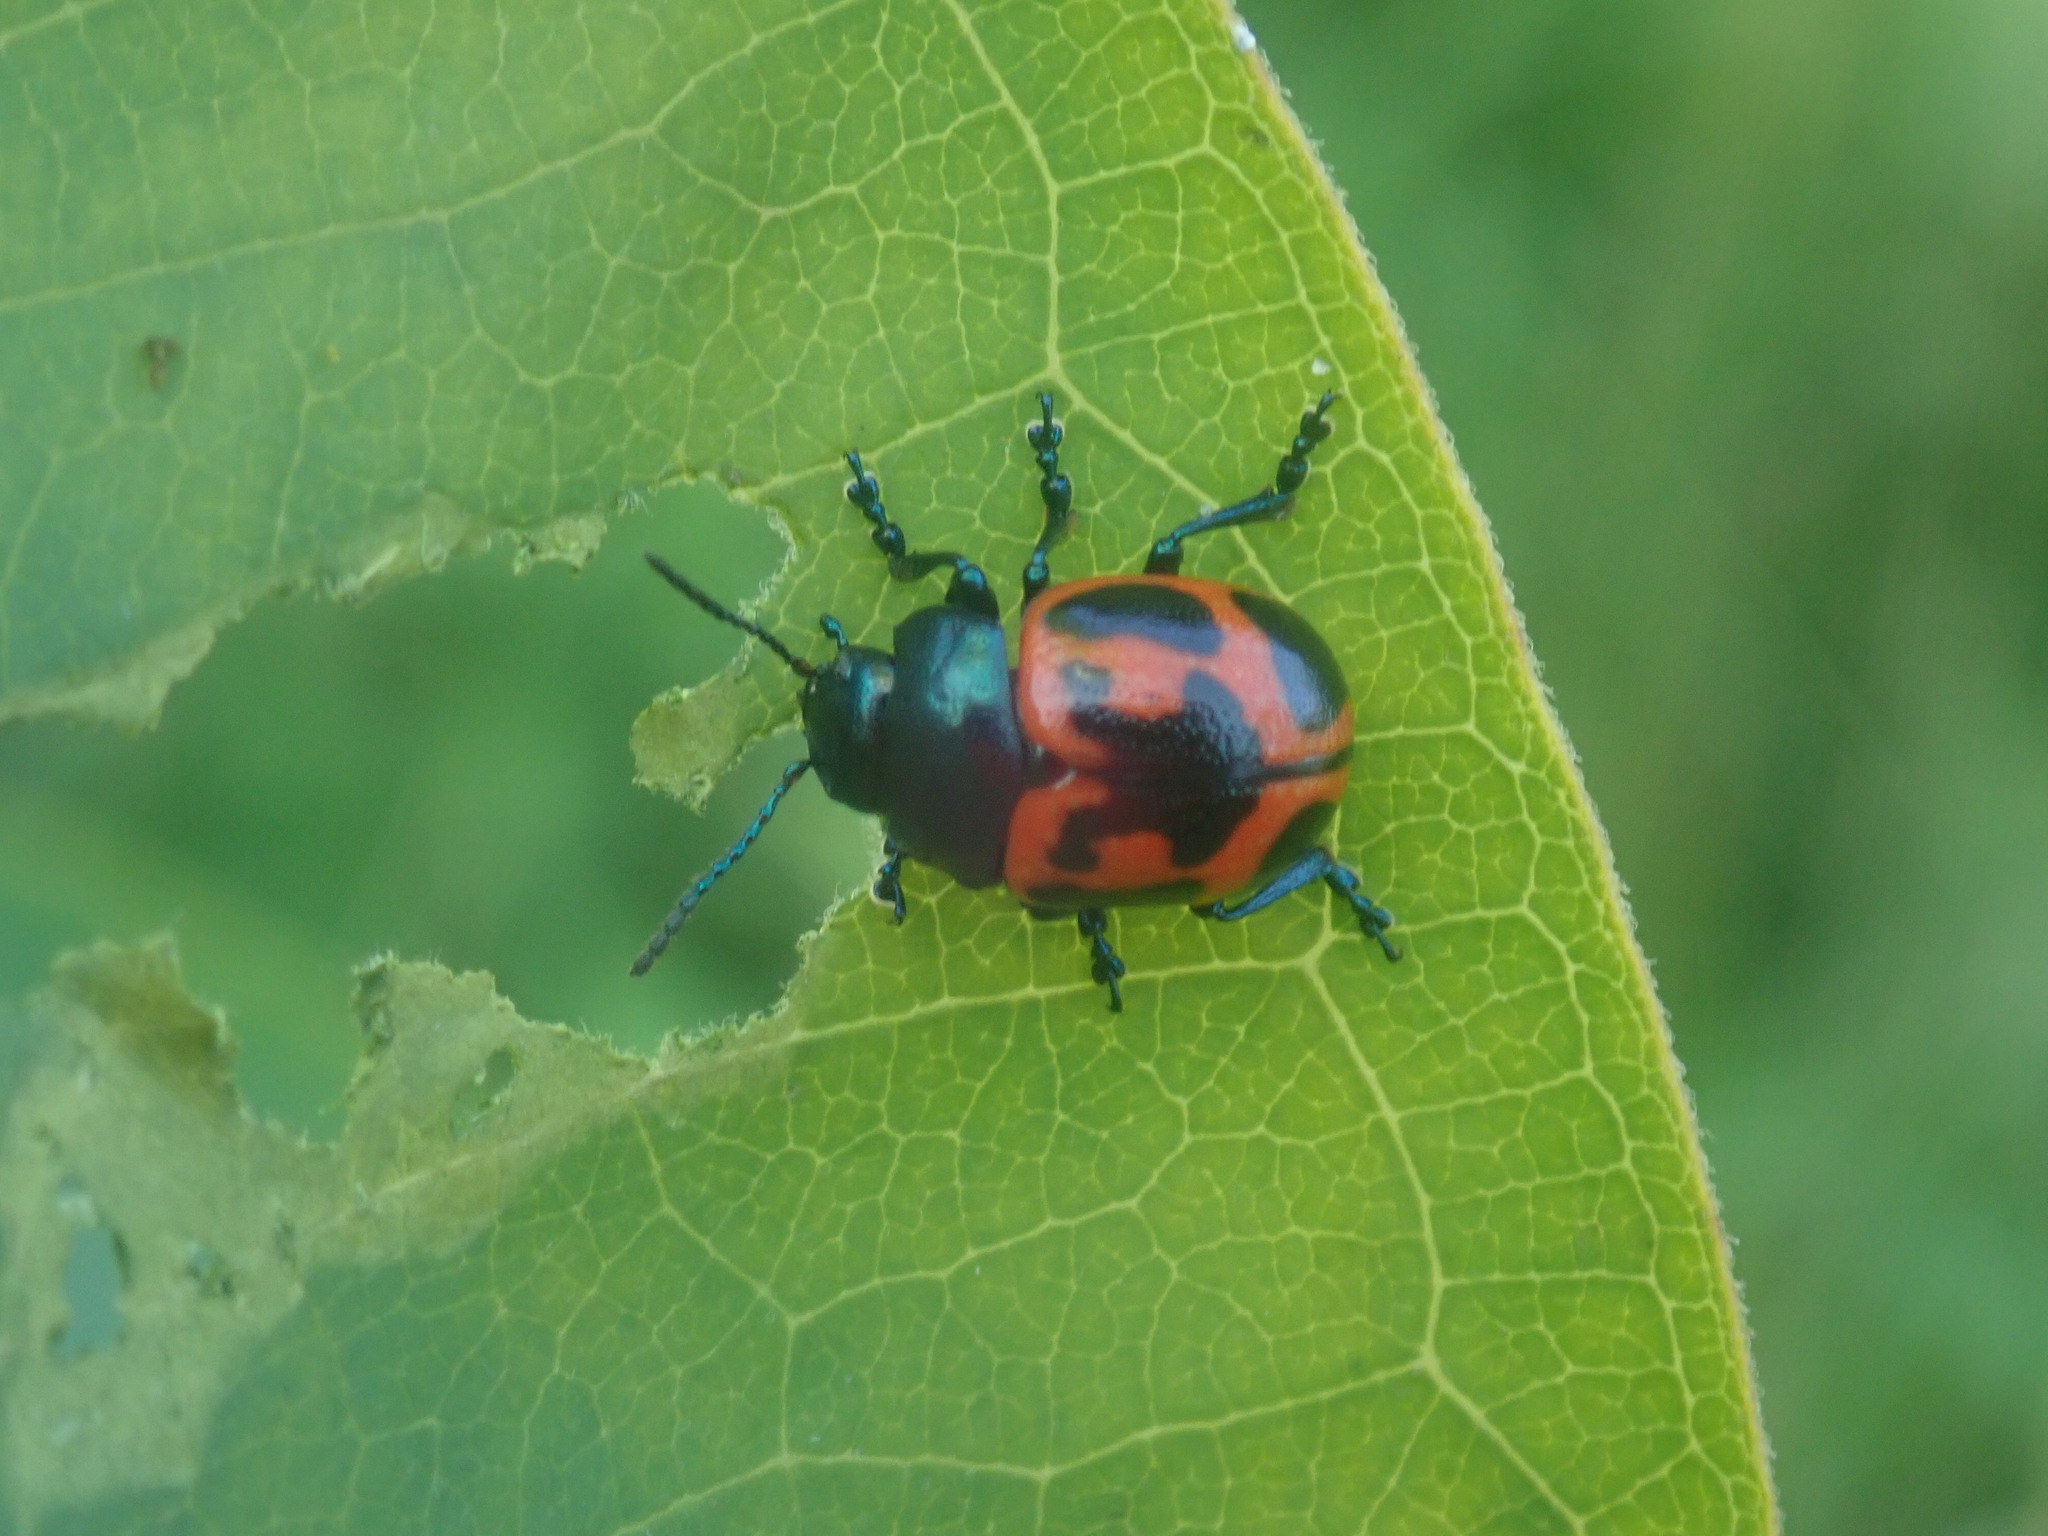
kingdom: Animalia
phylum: Arthropoda
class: Insecta
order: Coleoptera
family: Chrysomelidae
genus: Labidomera
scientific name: Labidomera clivicollis
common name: Swamp milkweed leaf beetle
